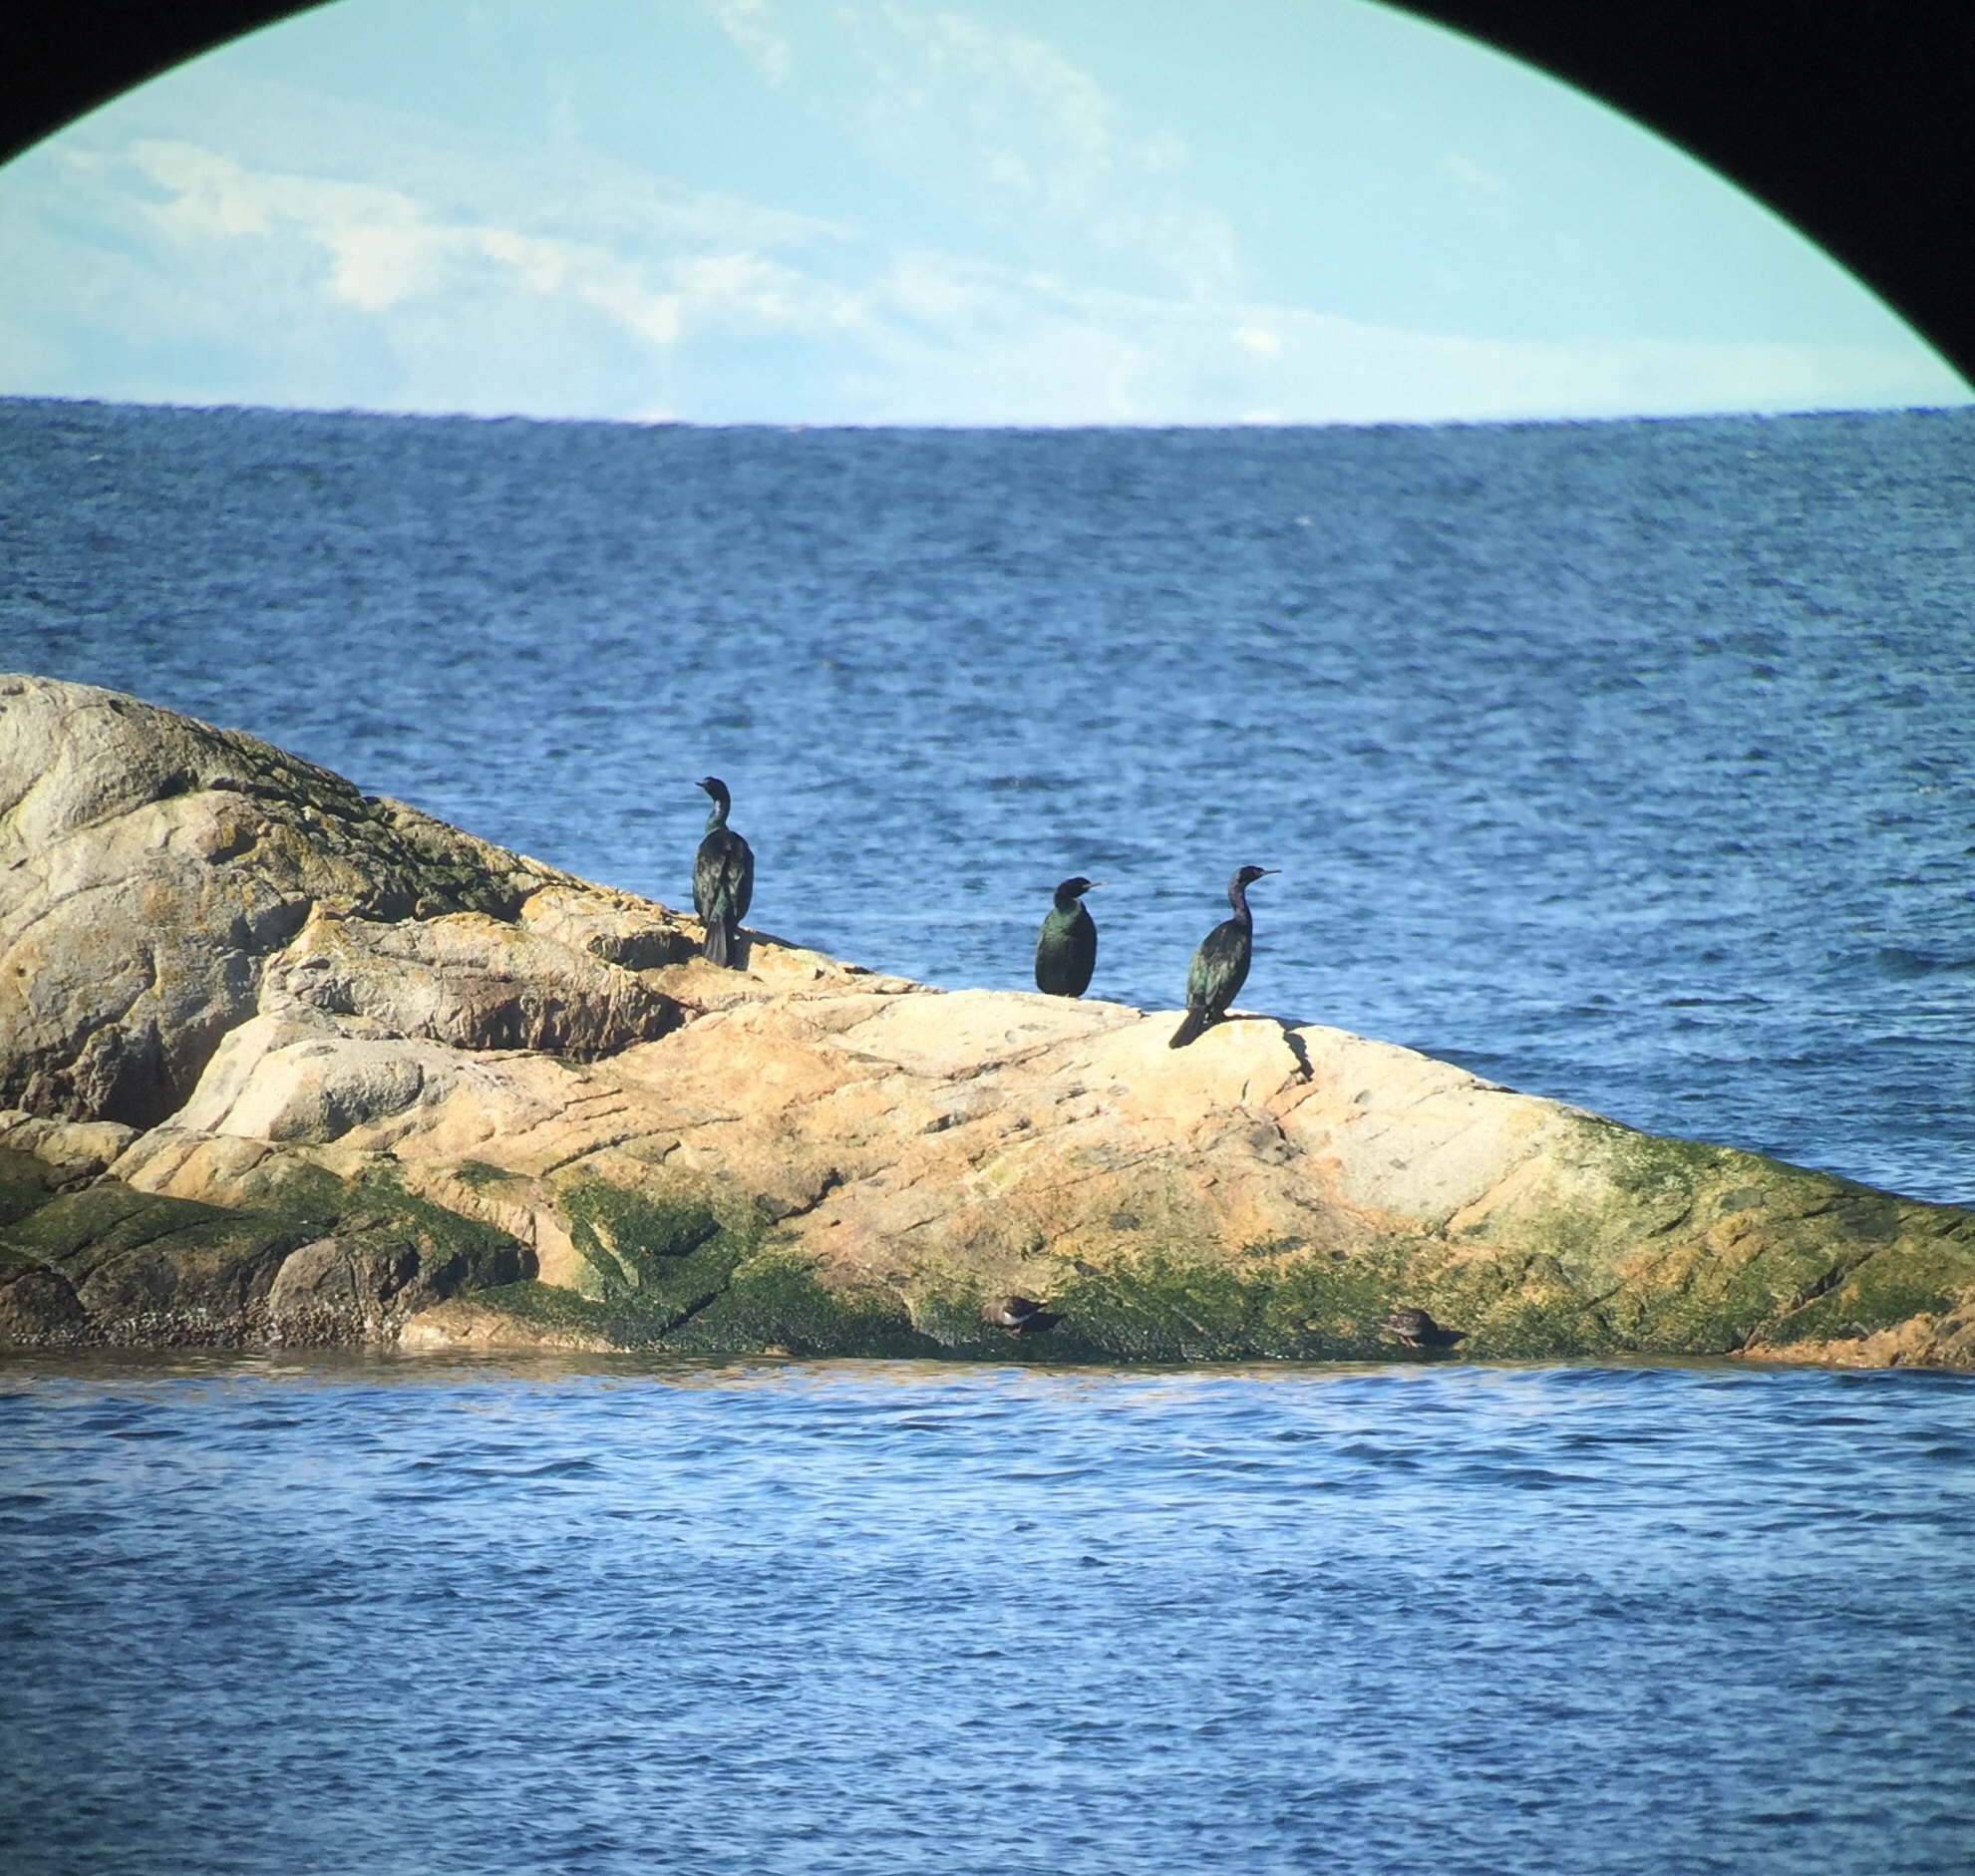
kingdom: Animalia
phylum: Chordata
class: Aves
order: Suliformes
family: Phalacrocoracidae
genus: Phalacrocorax
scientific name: Phalacrocorax pelagicus
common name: Pelagic cormorant
